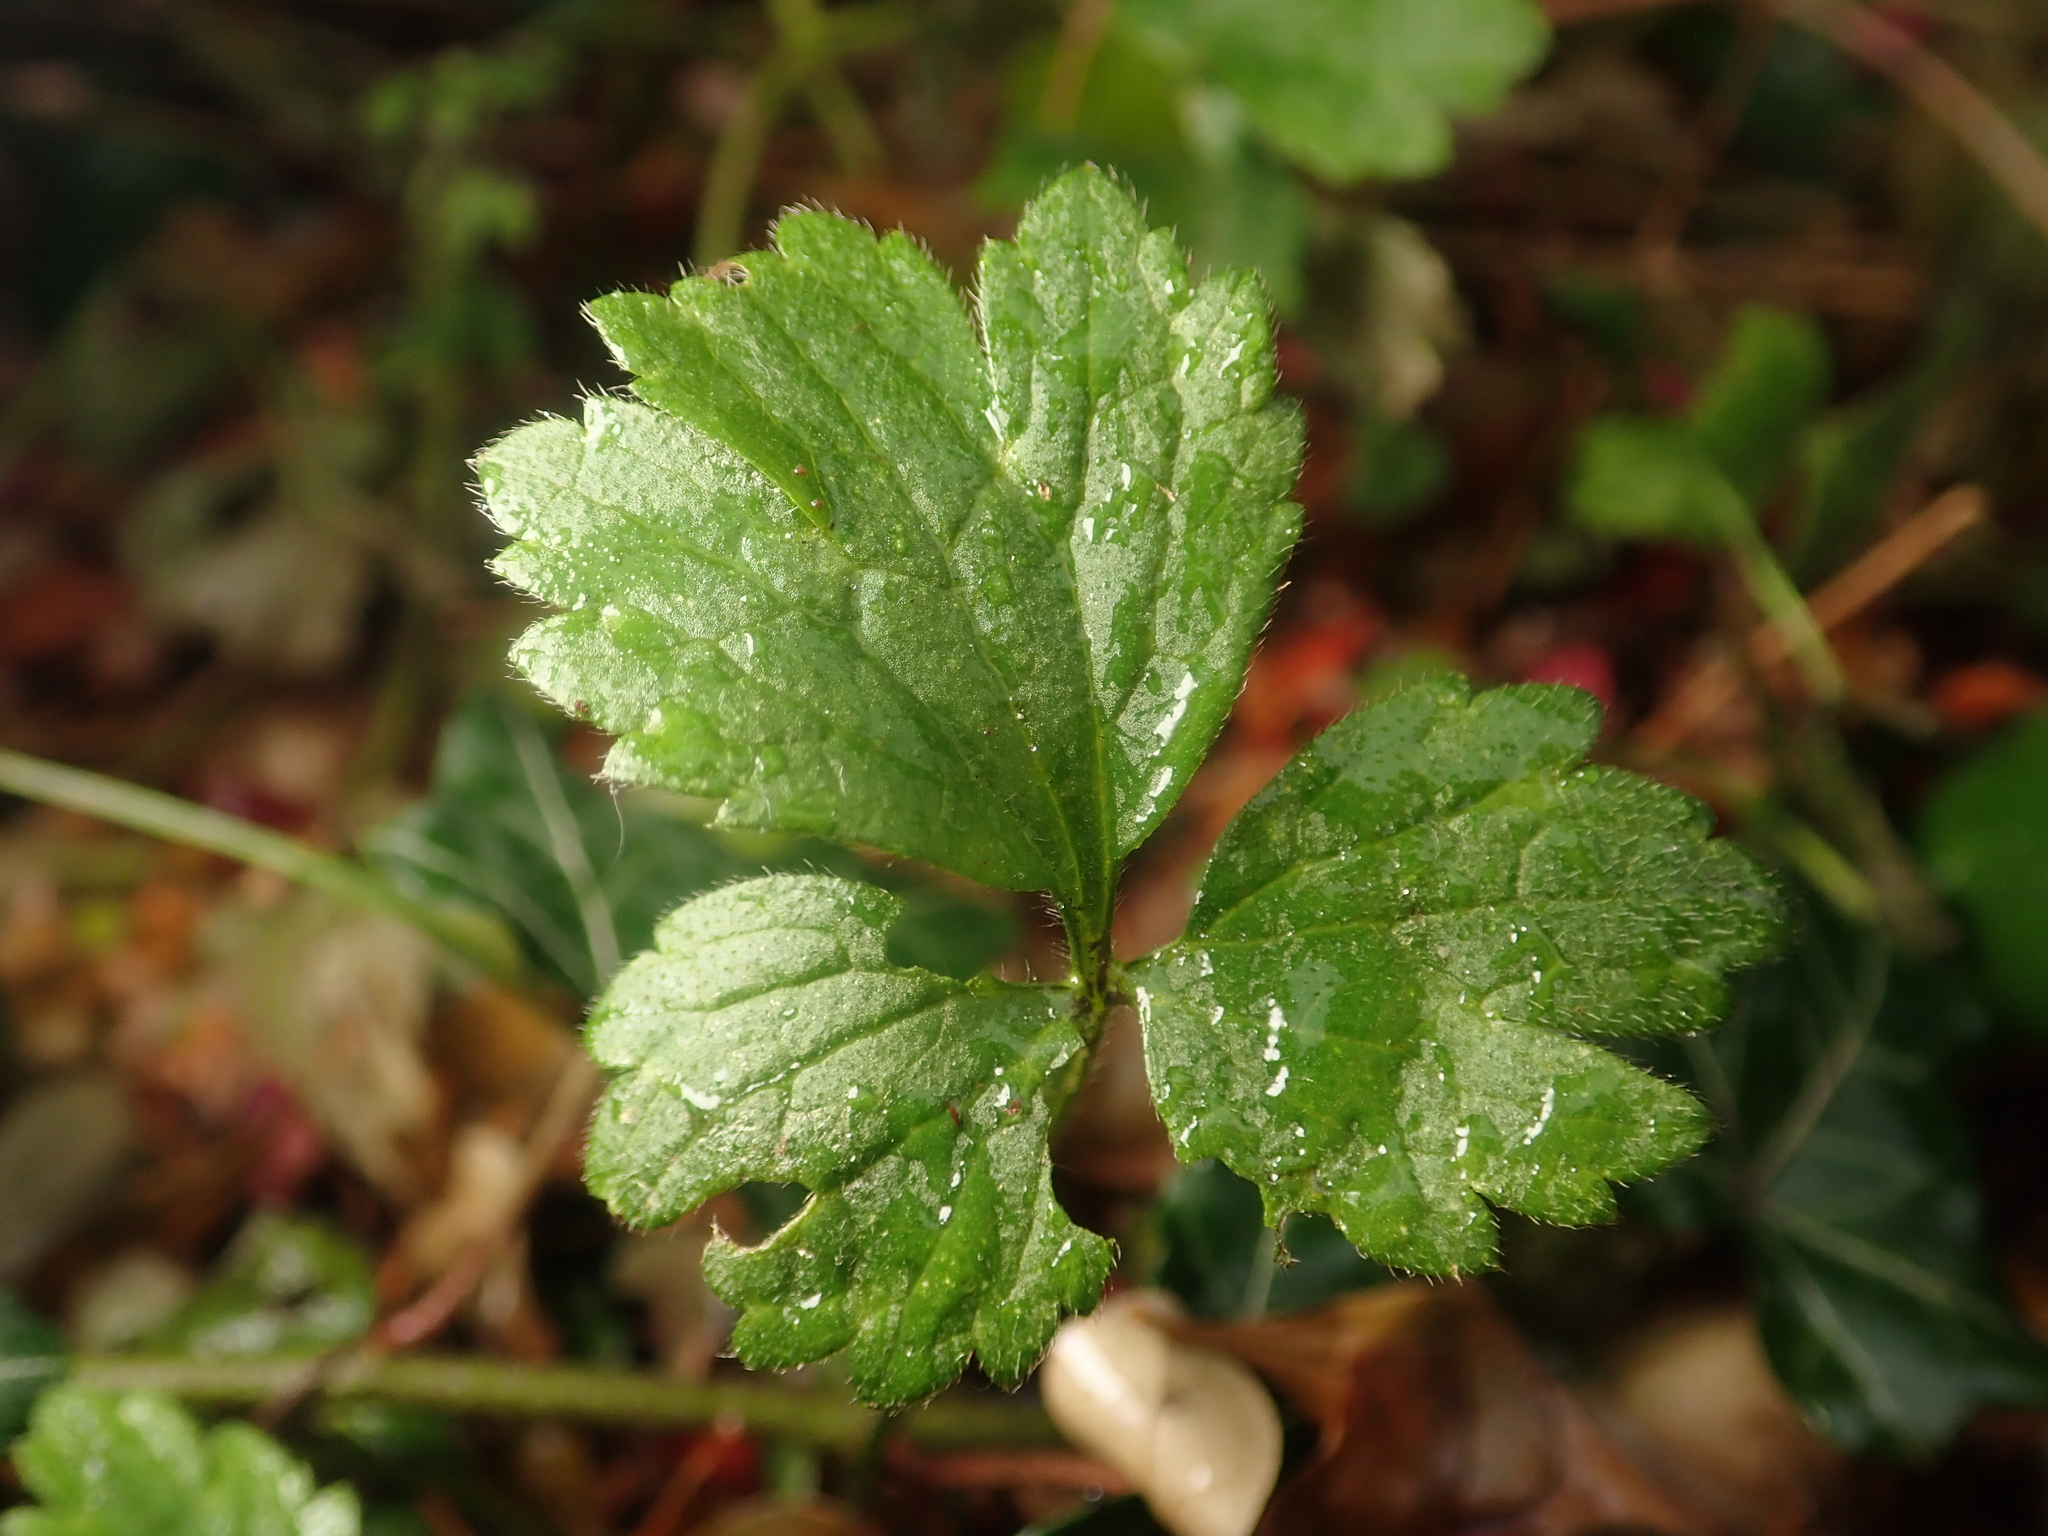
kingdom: Plantae
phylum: Tracheophyta
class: Magnoliopsida
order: Ranunculales
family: Ranunculaceae
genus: Ranunculus
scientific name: Ranunculus repens
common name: Creeping buttercup
